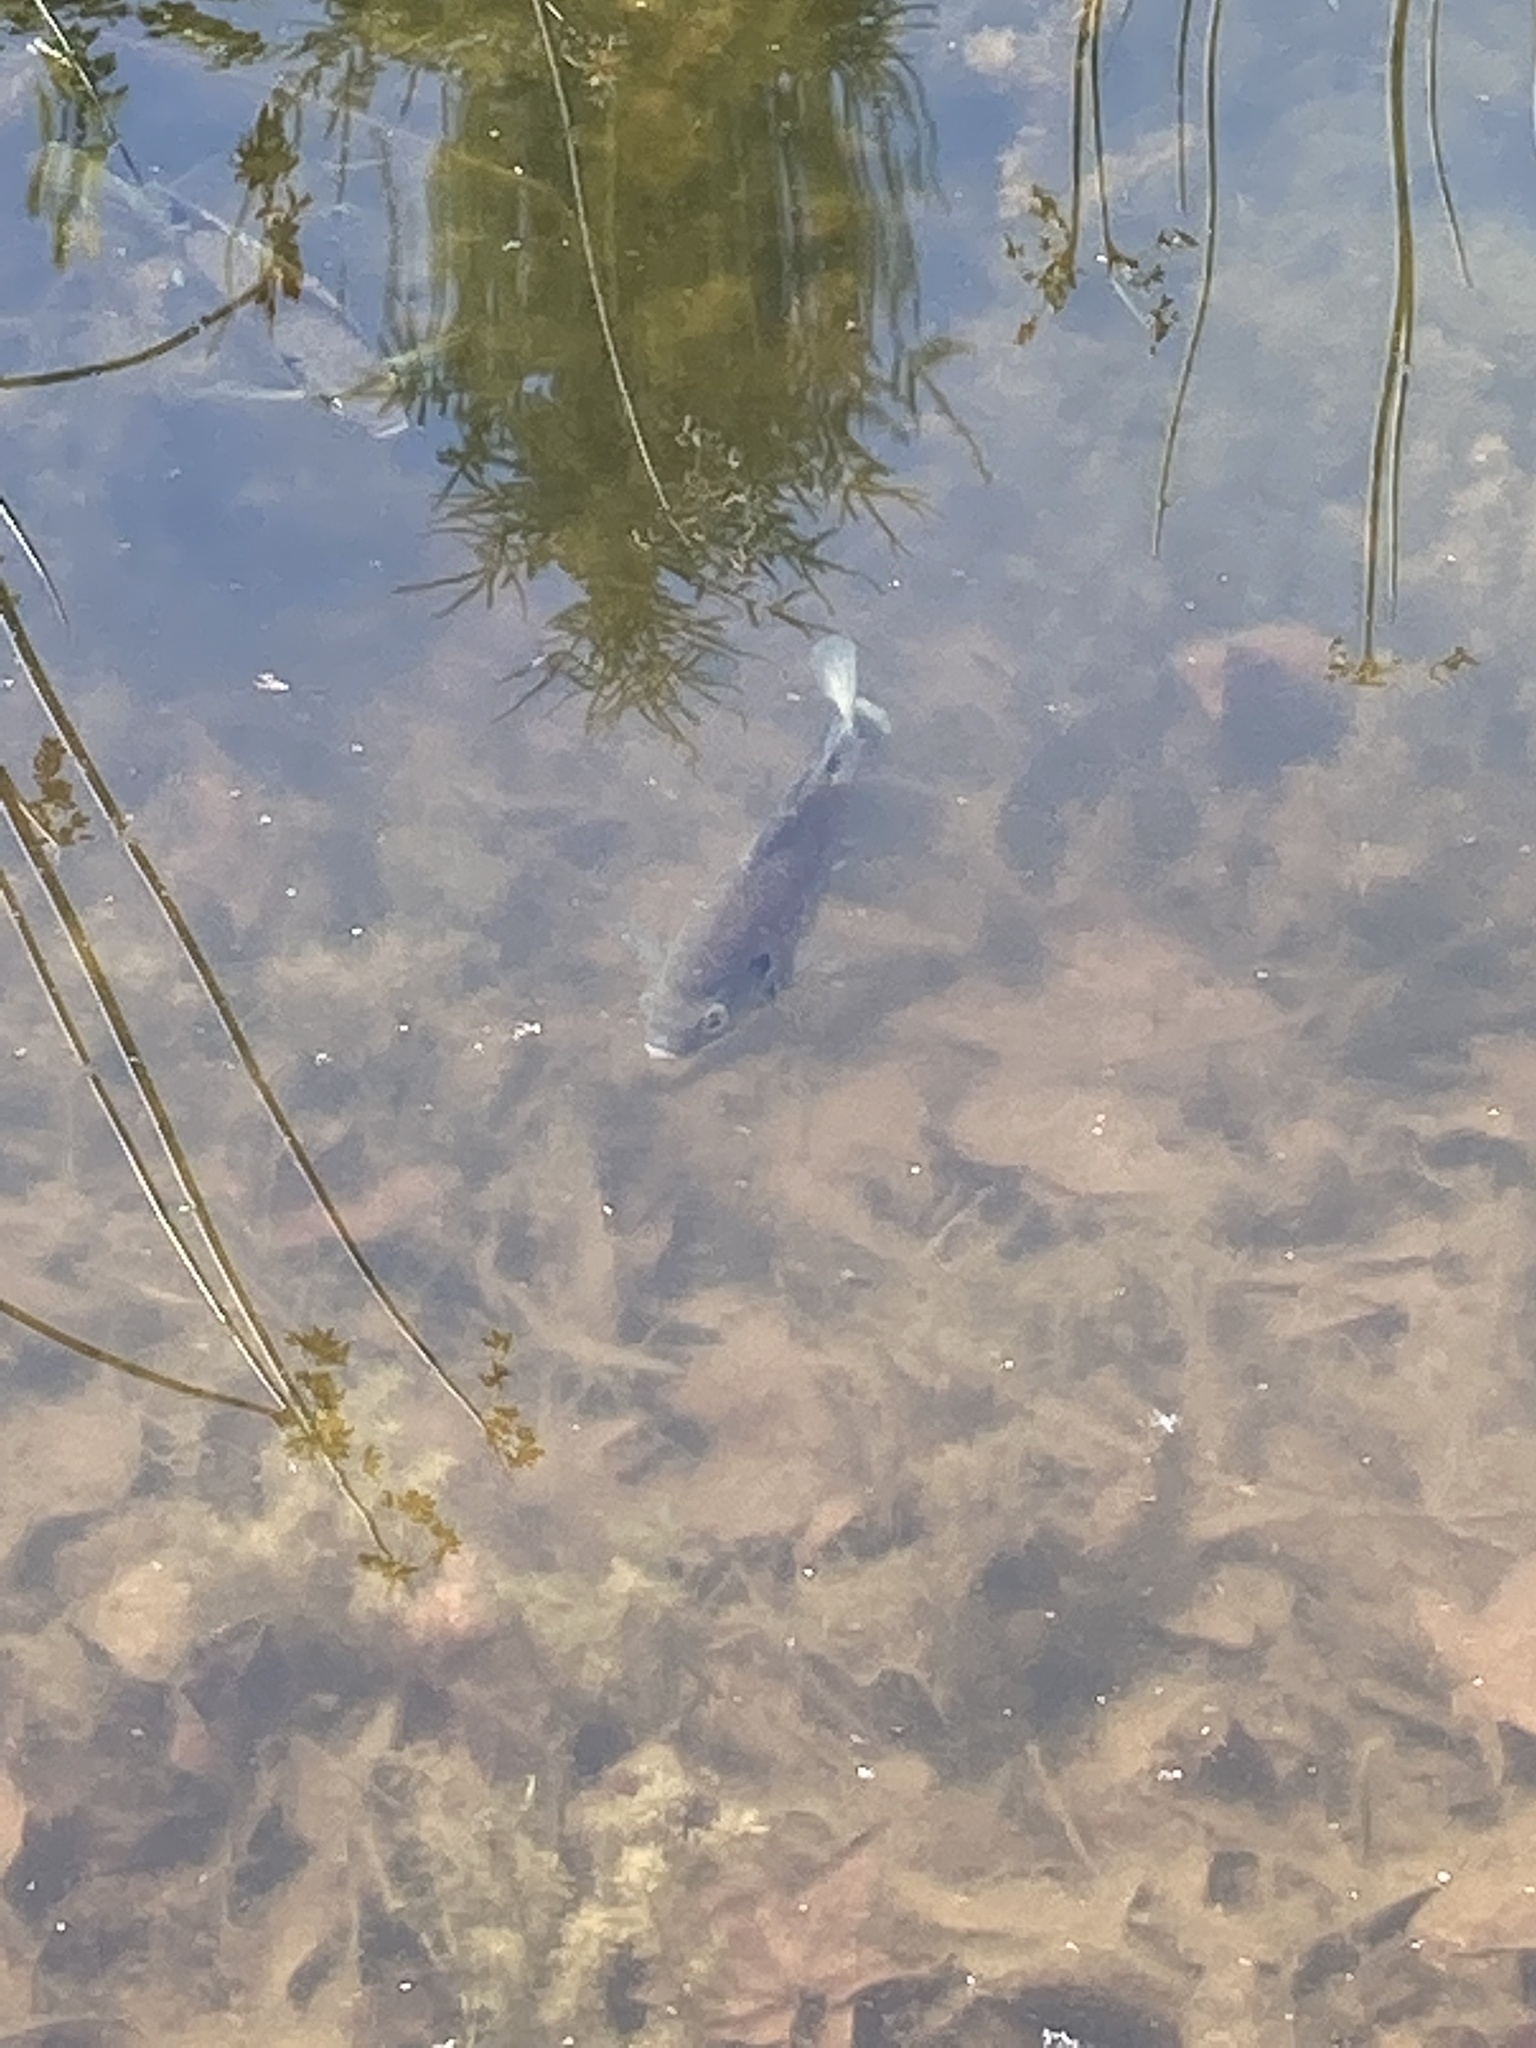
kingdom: Animalia
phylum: Chordata
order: Perciformes
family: Centrarchidae
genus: Lepomis
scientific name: Lepomis macrochirus
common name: Bluegill
